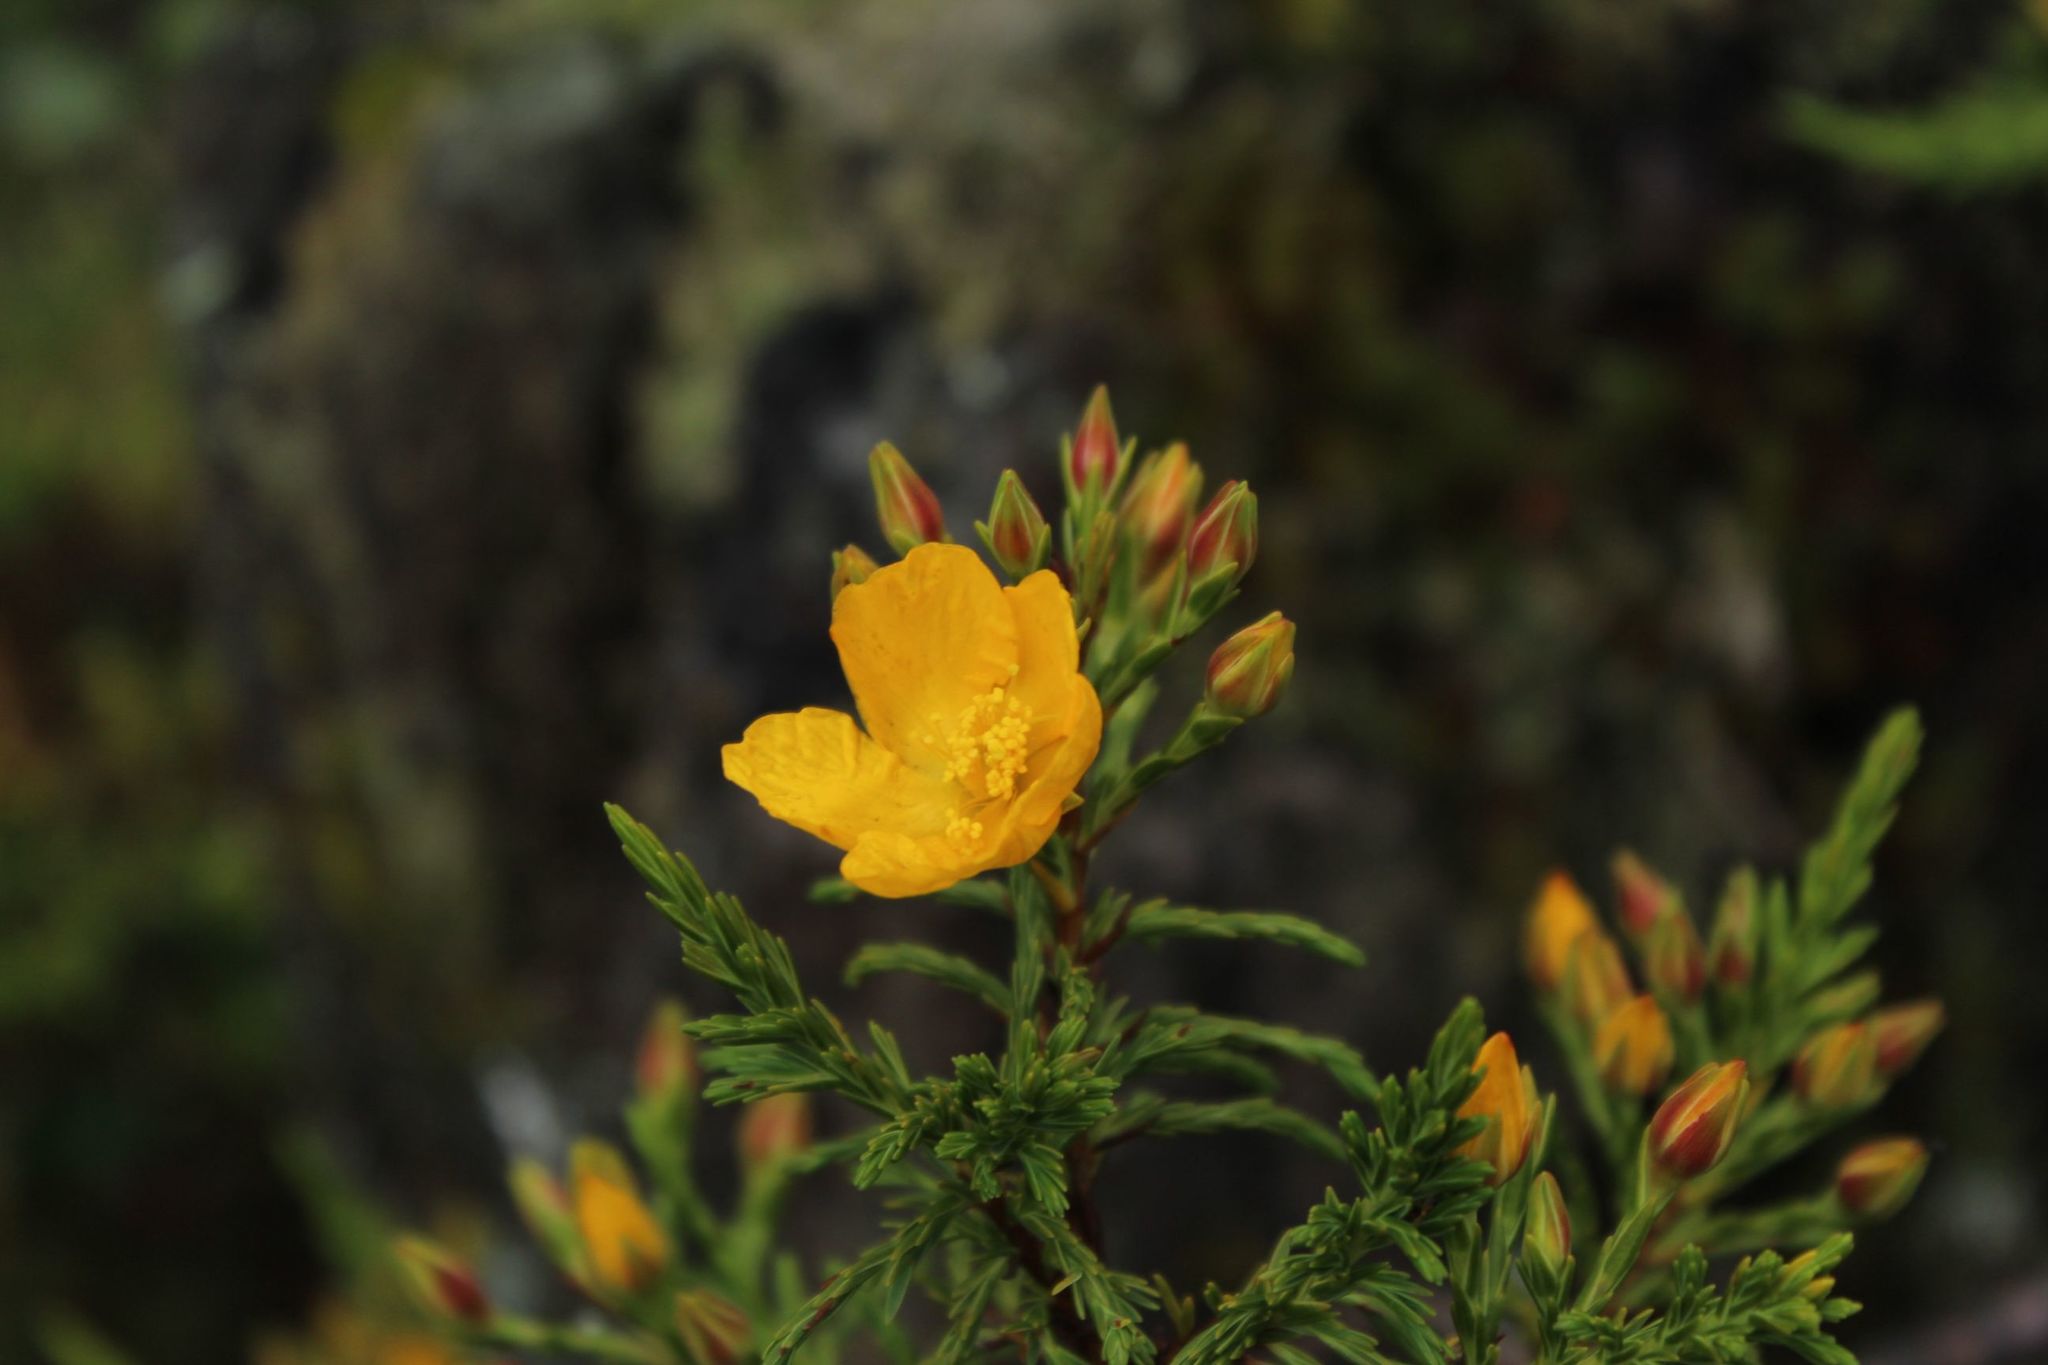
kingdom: Plantae
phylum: Tracheophyta
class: Magnoliopsida
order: Malpighiales
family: Hypericaceae
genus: Hypericum
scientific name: Hypericum goyanesii
